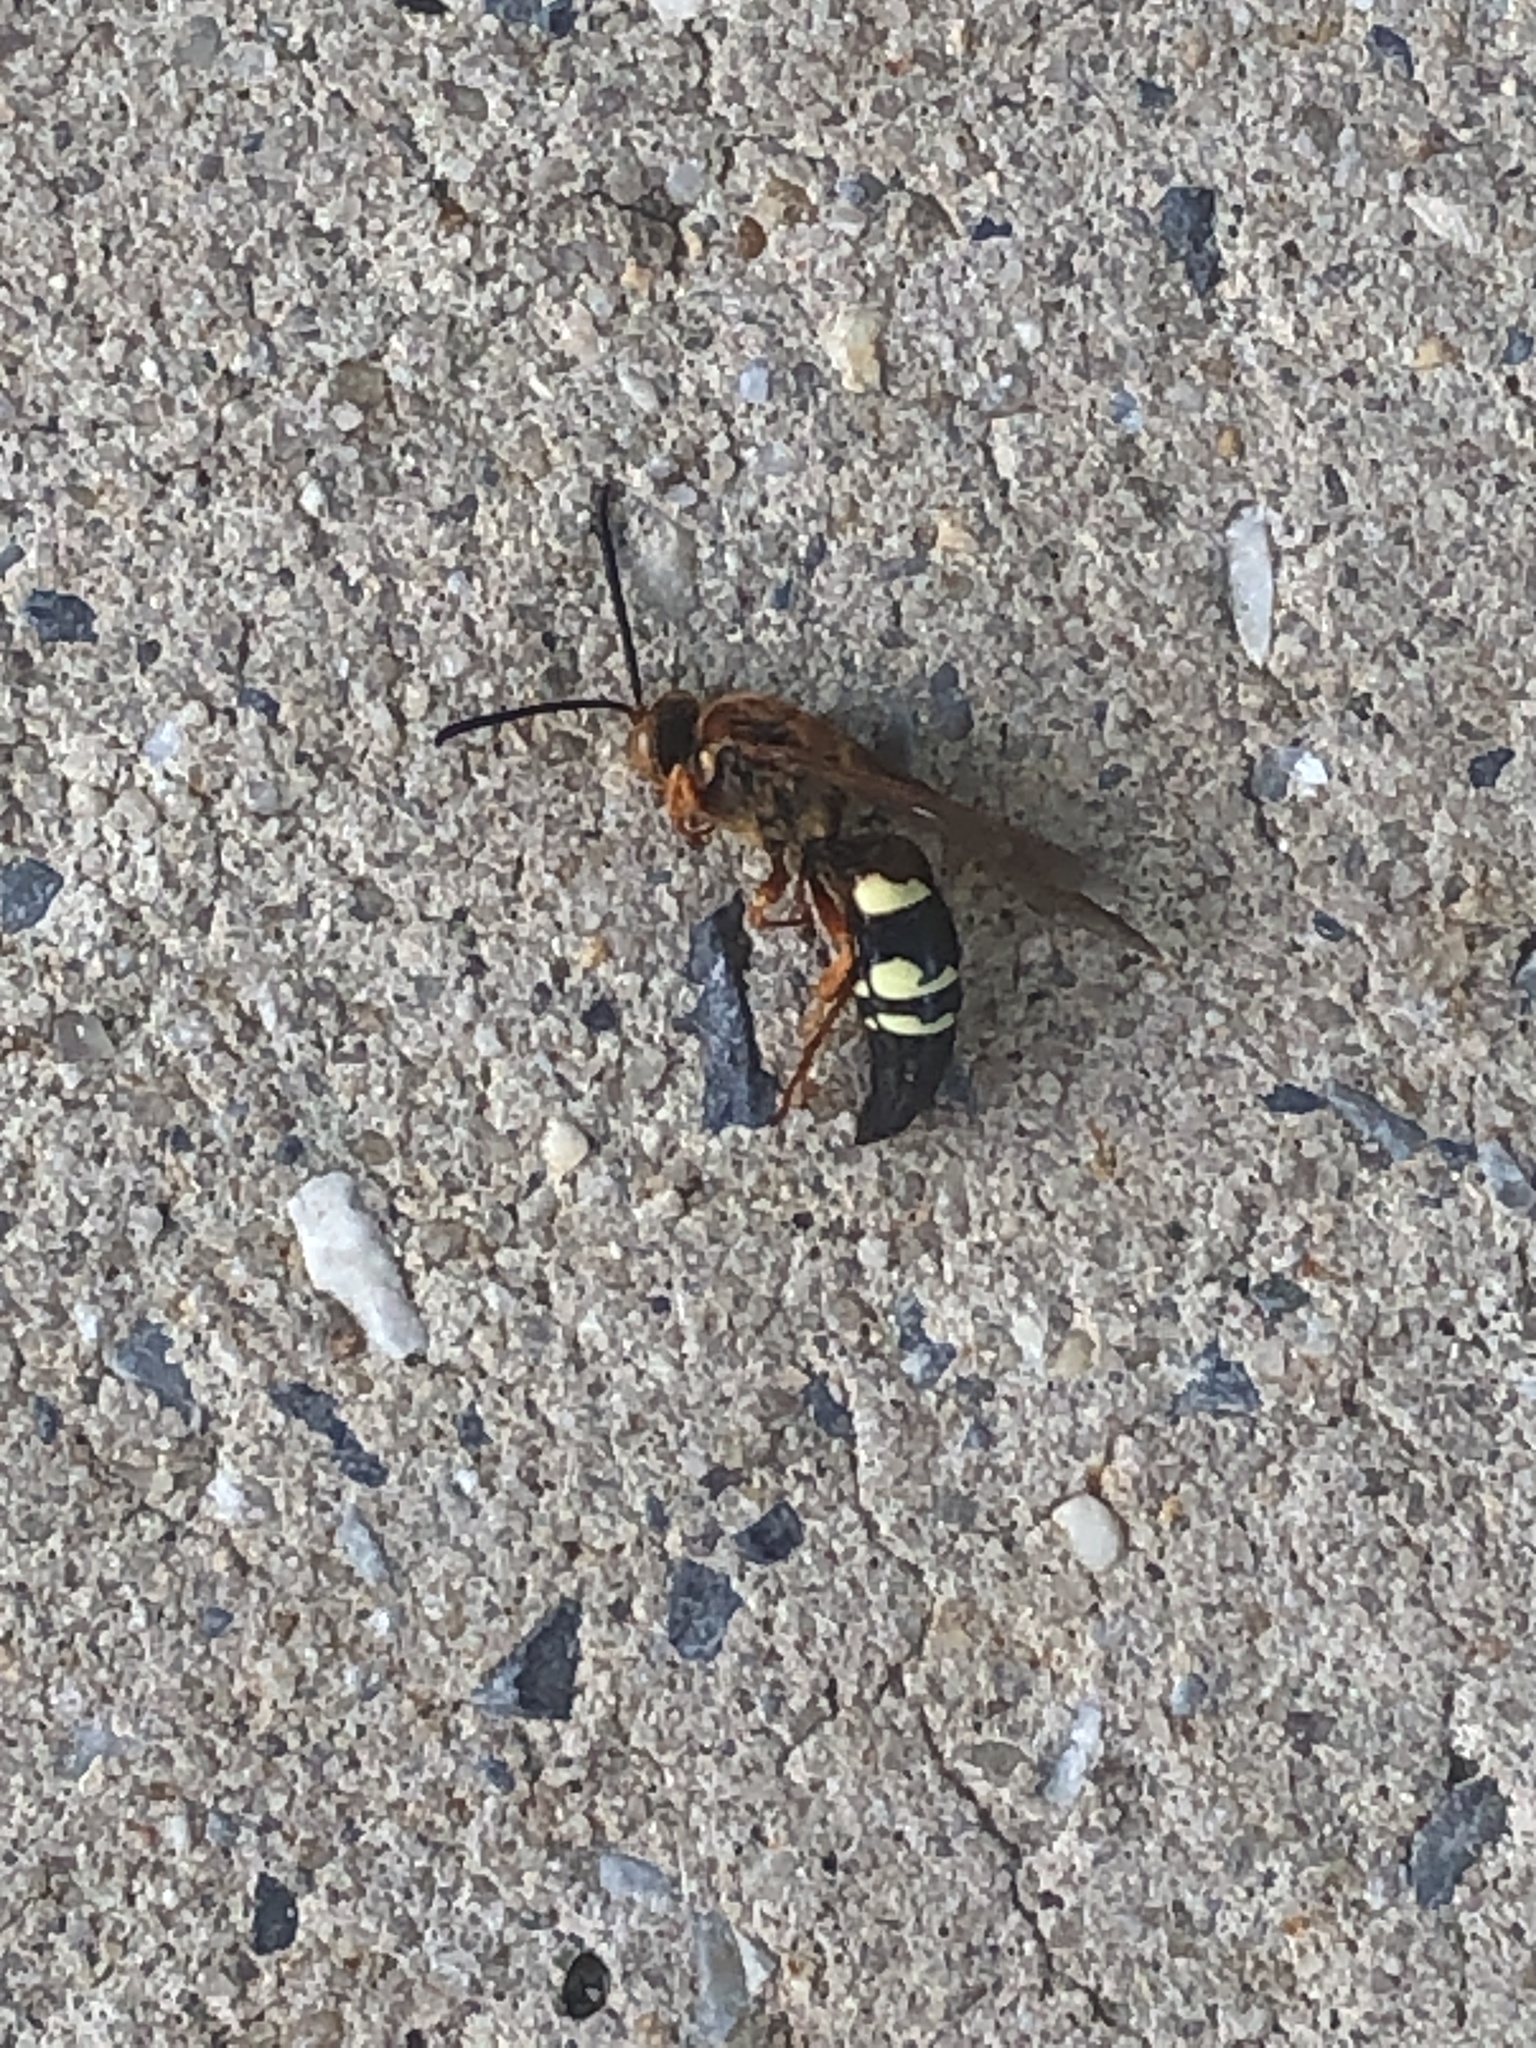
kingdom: Animalia
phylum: Arthropoda
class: Insecta
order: Hymenoptera
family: Crabronidae
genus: Sphecius
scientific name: Sphecius speciosus
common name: Cicada killer
